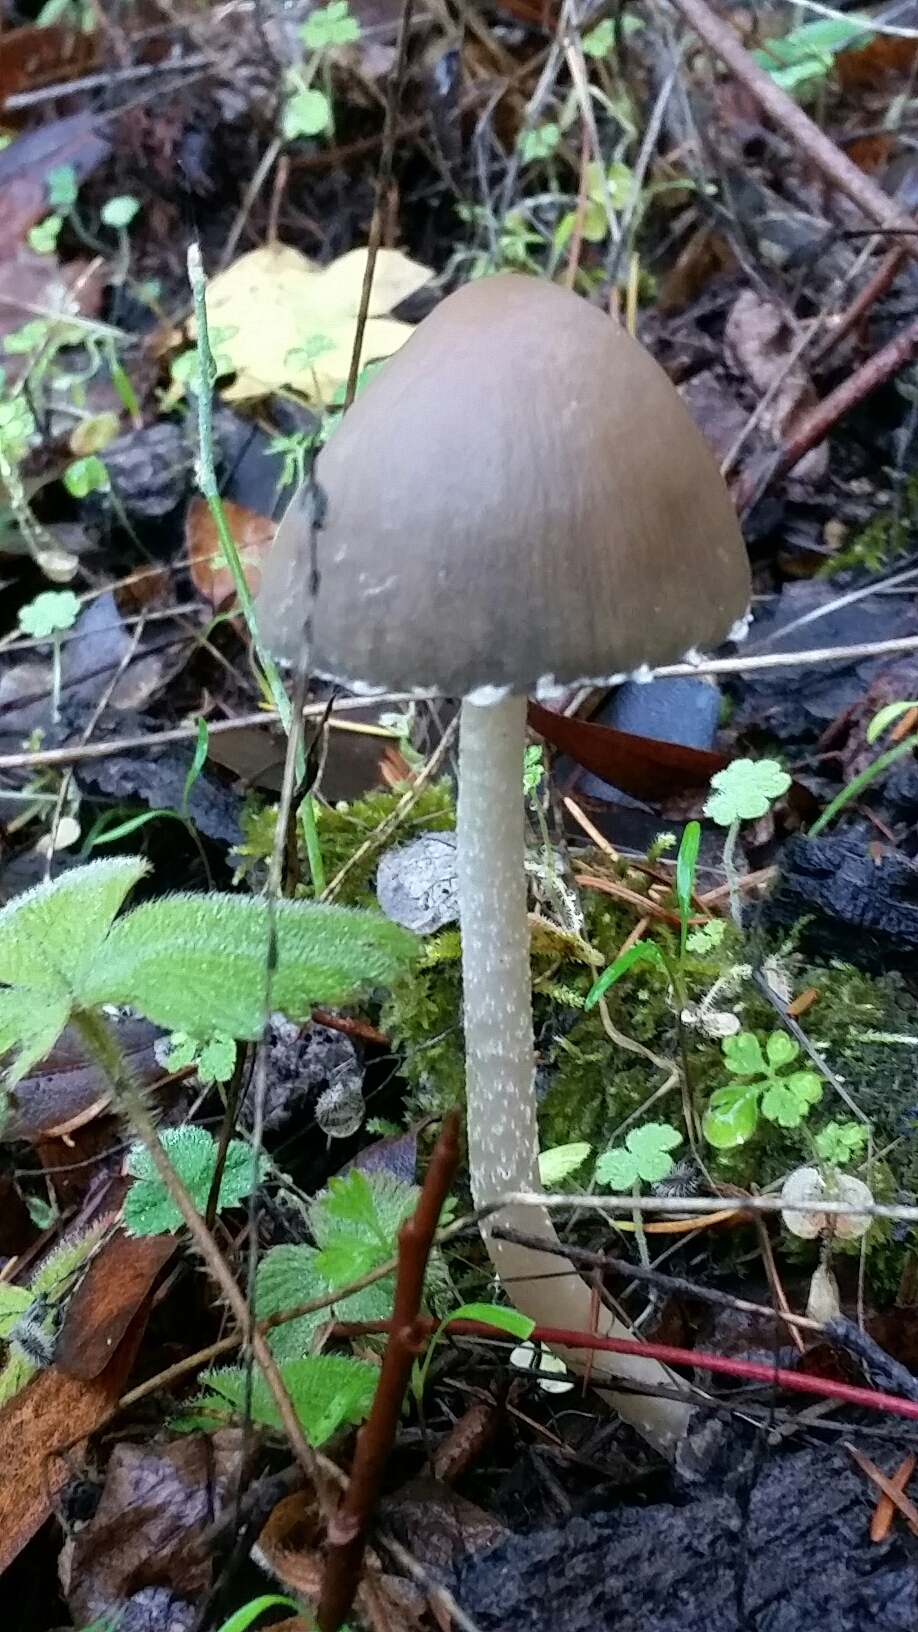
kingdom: Fungi
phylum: Basidiomycota
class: Agaricomycetes
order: Agaricales
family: Psathyrellaceae
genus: Psathyrella
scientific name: Psathyrella longipes
